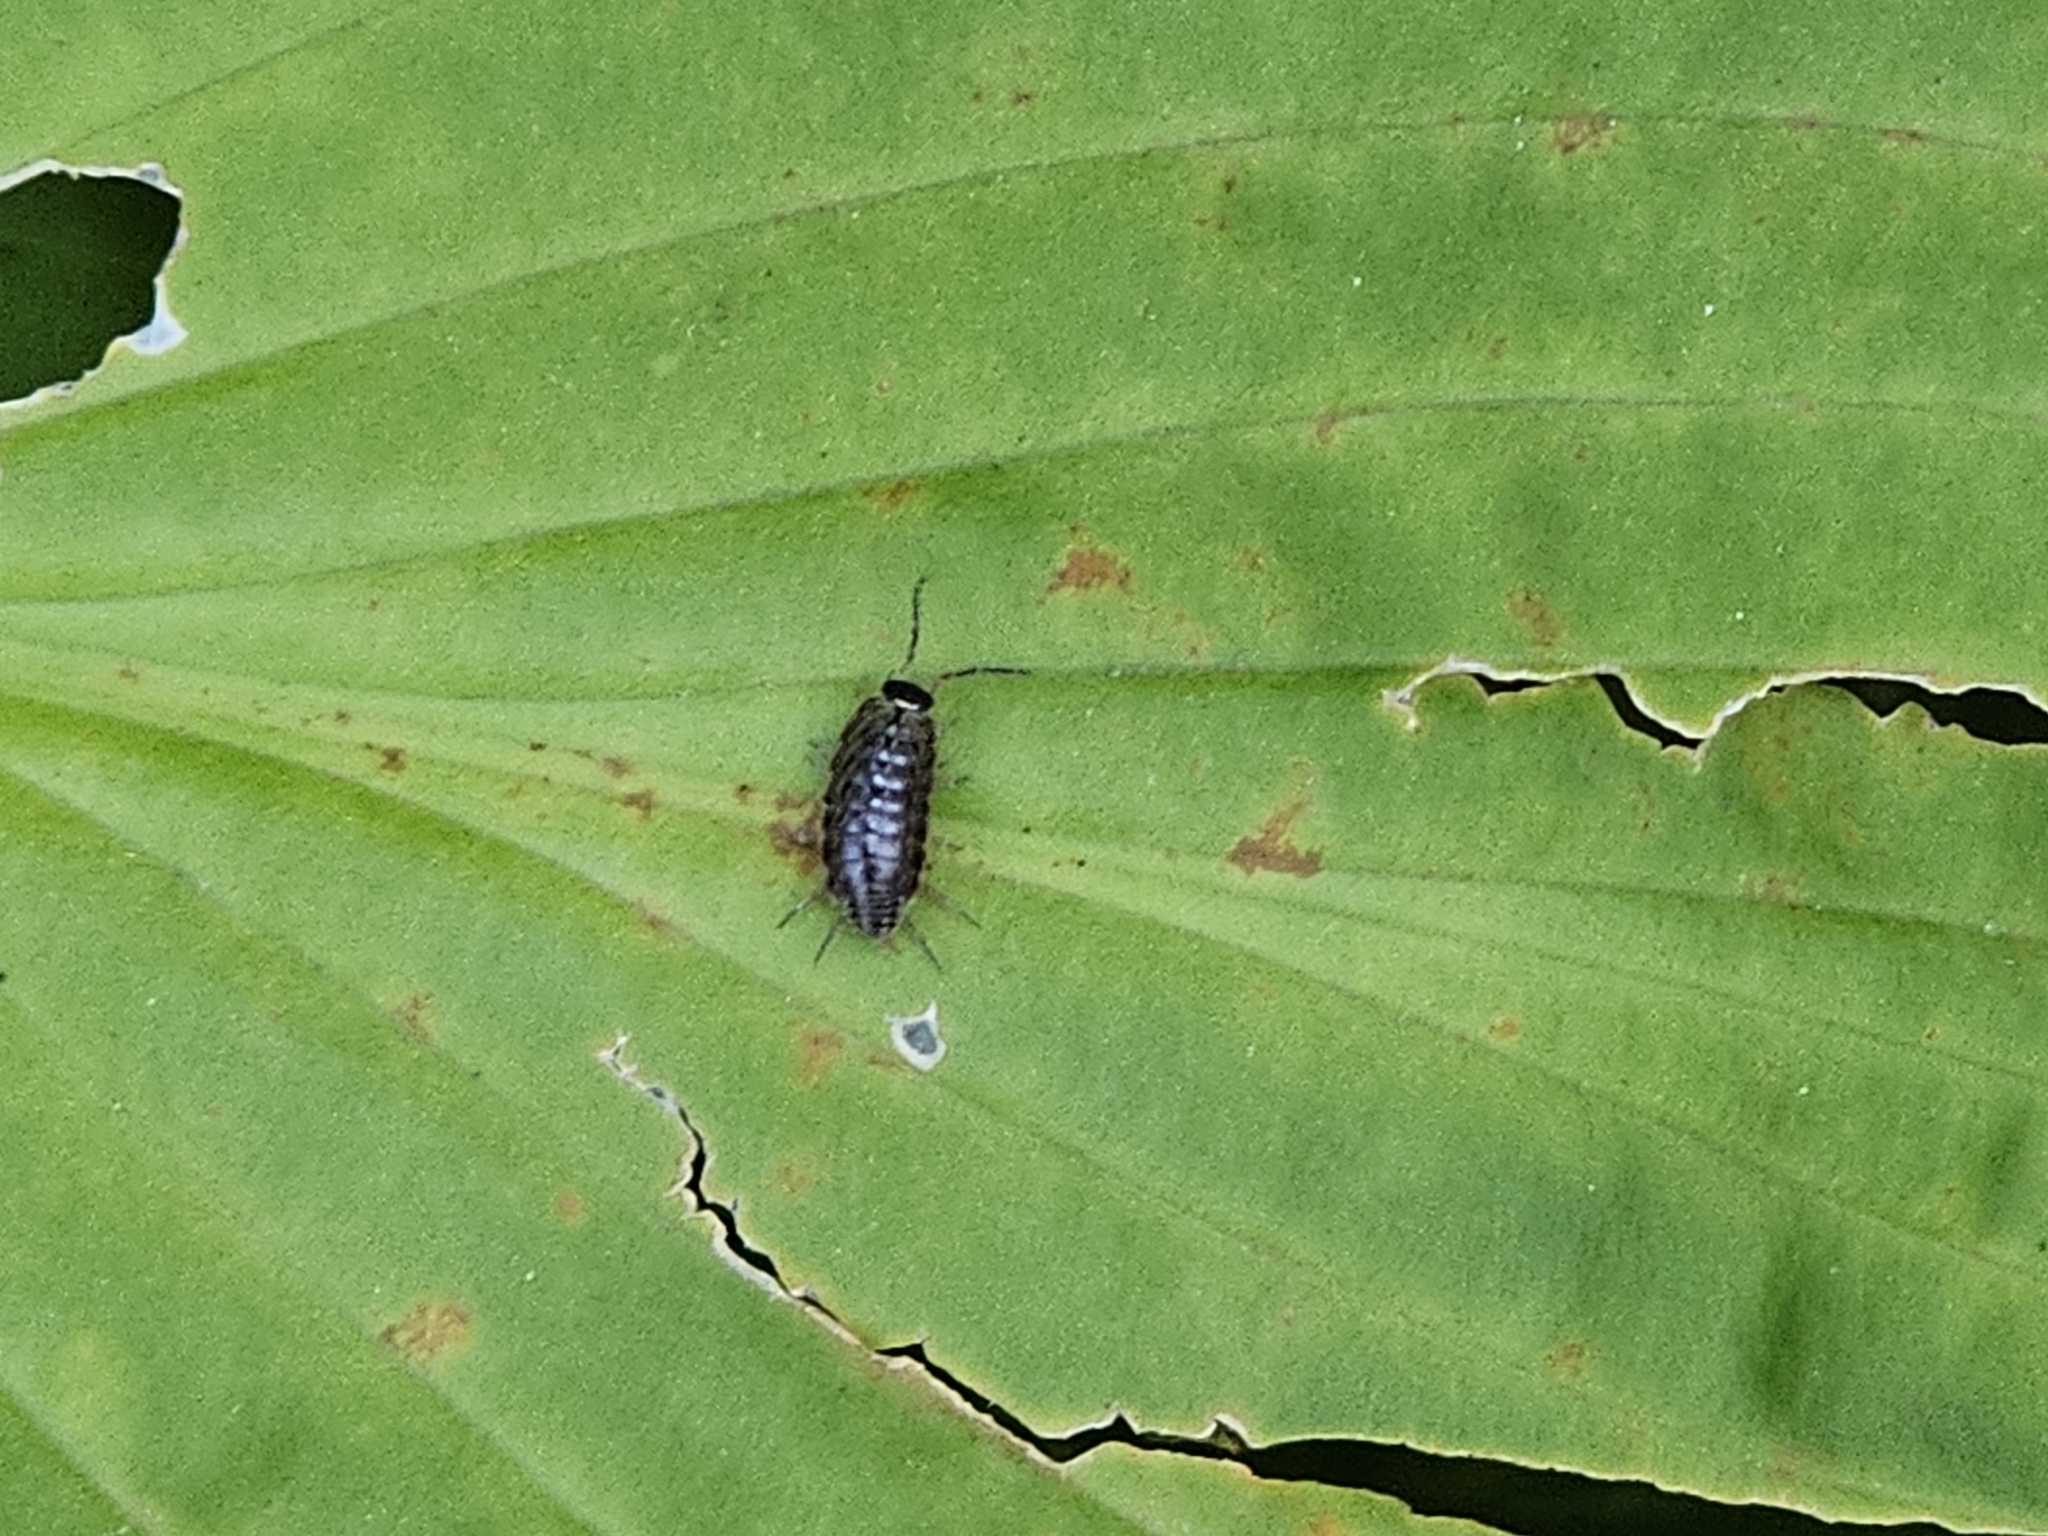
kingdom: Animalia
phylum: Arthropoda
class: Malacostraca
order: Isopoda
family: Philosciidae
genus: Philoscia
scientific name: Philoscia muscorum
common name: Common striped woodlouse
